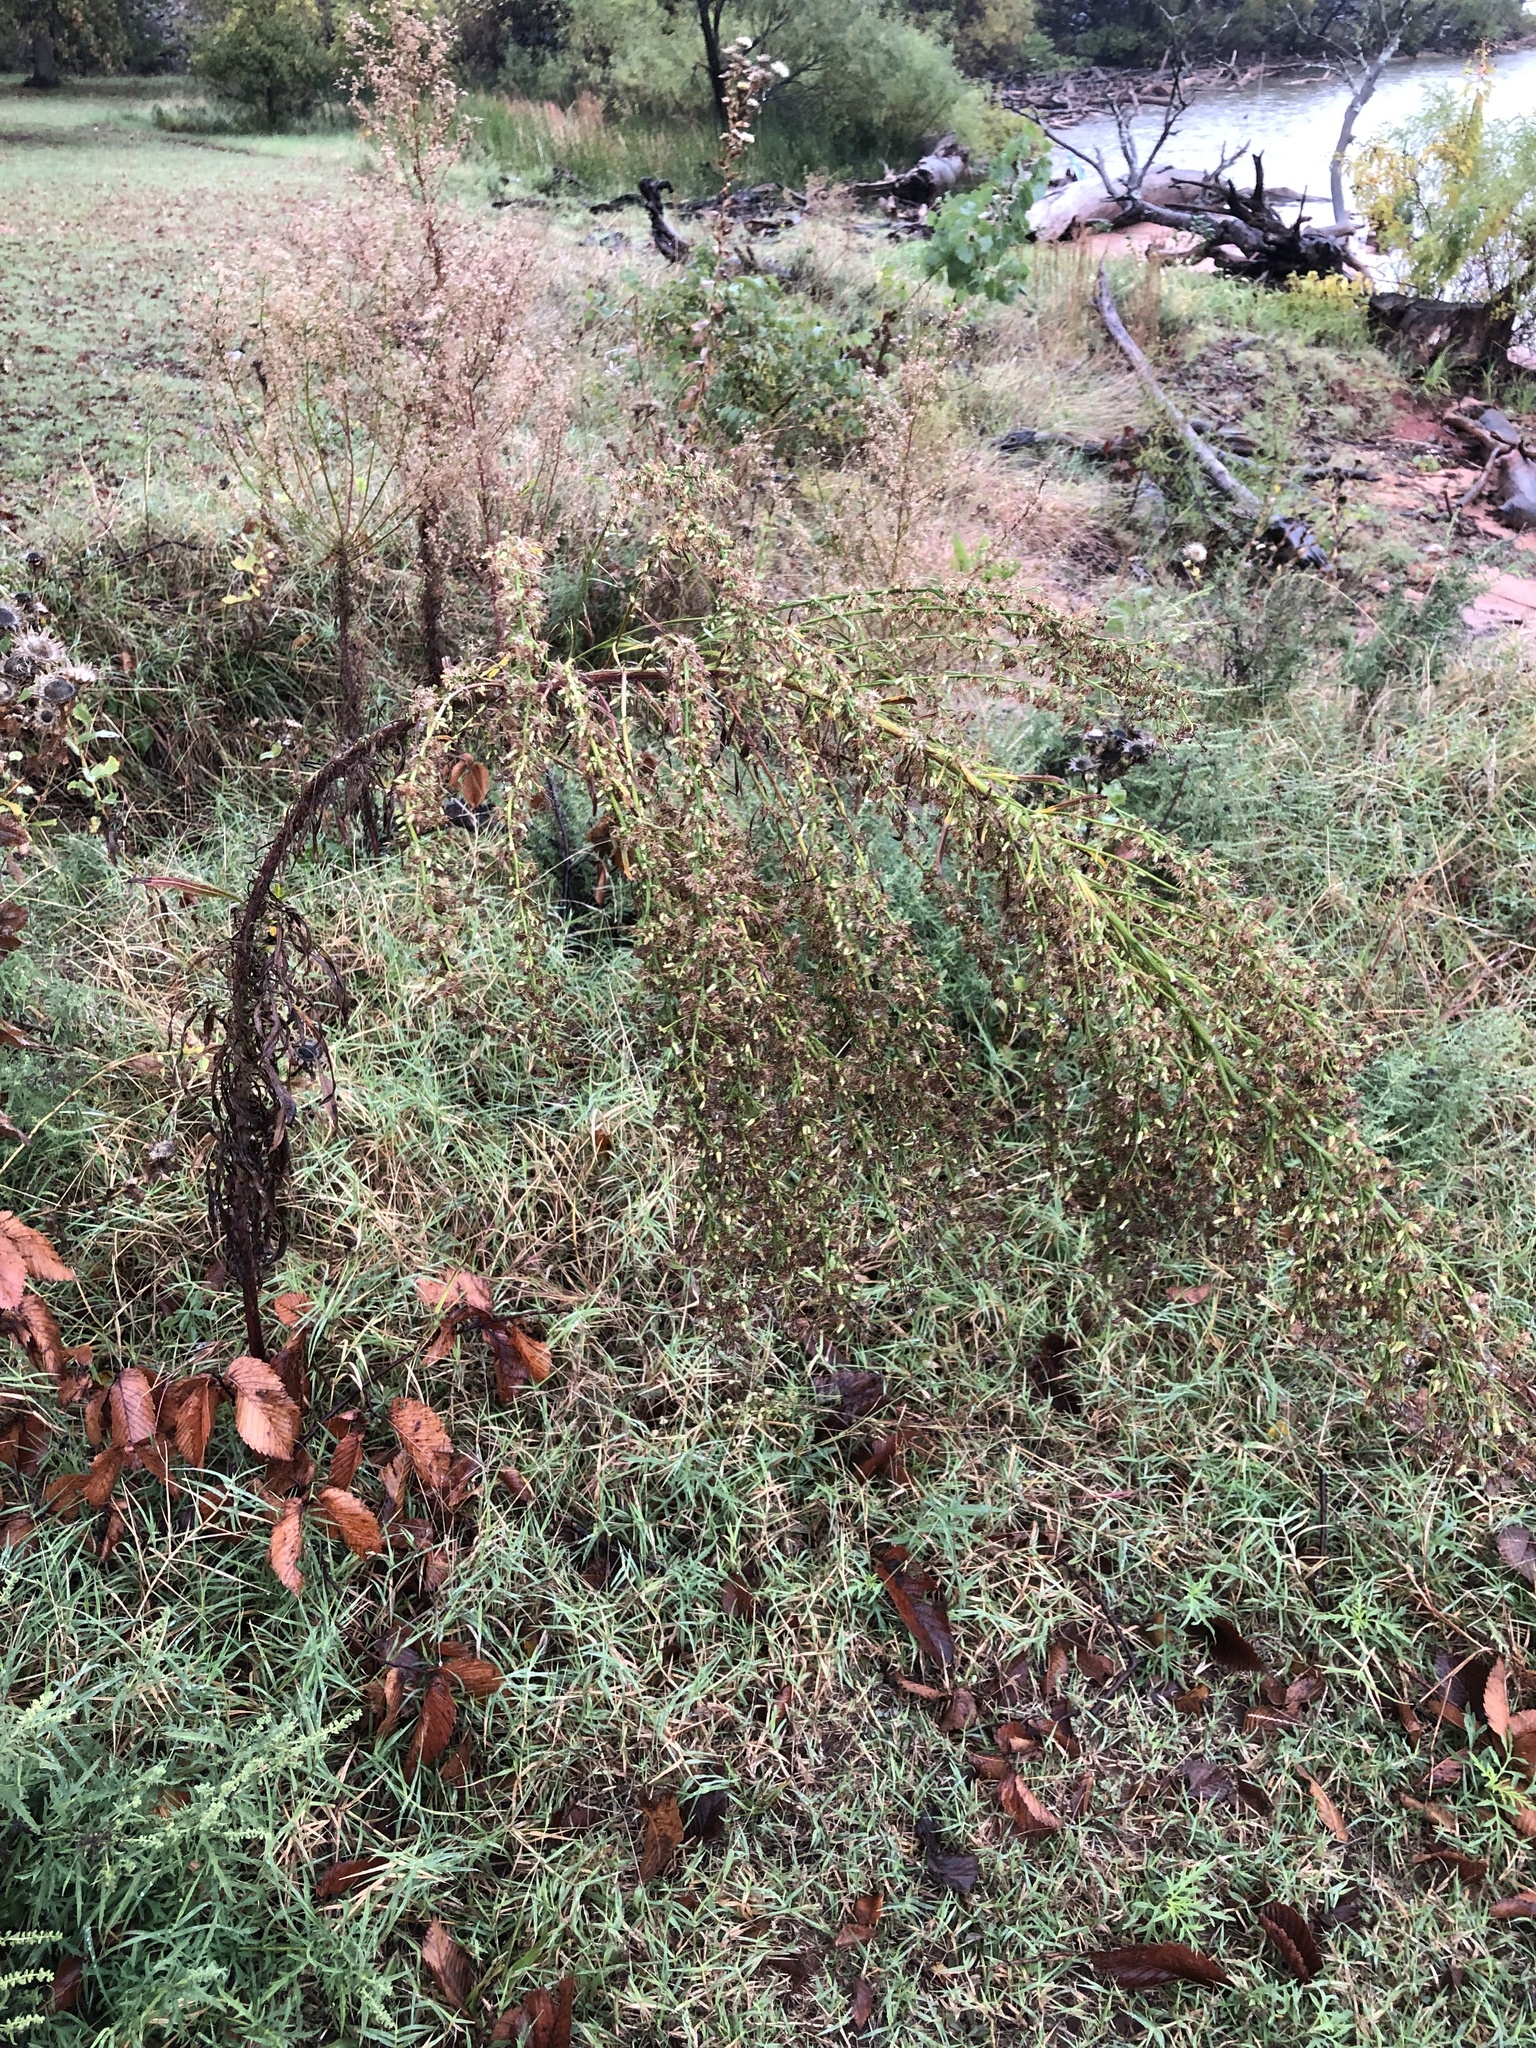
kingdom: Plantae
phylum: Tracheophyta
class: Magnoliopsida
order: Asterales
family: Asteraceae
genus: Erigeron
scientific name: Erigeron canadensis
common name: Canadian fleabane
